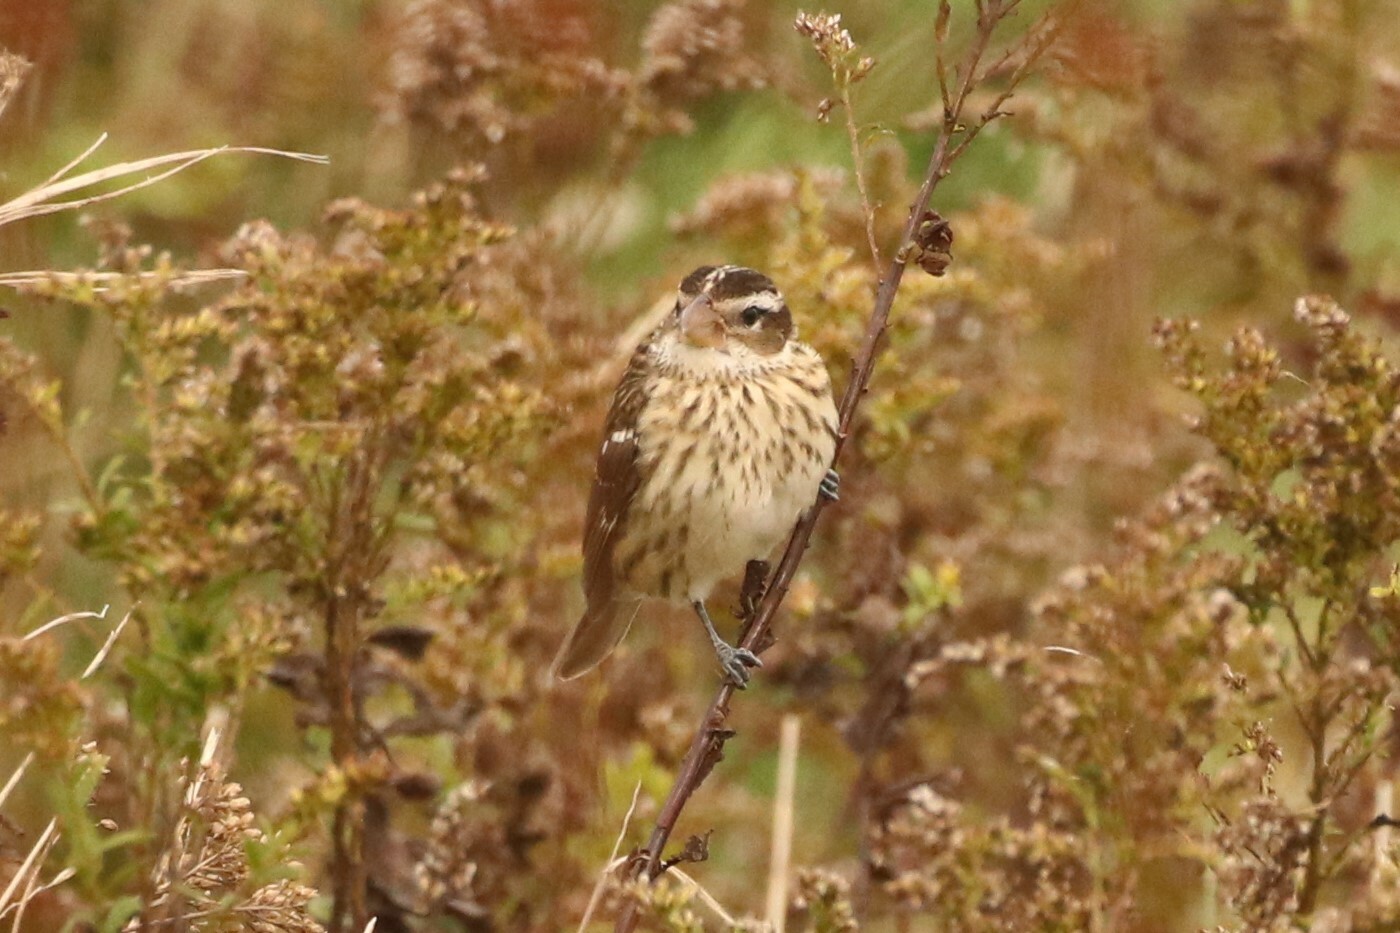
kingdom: Animalia
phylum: Chordata
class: Aves
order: Passeriformes
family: Cardinalidae
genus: Pheucticus
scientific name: Pheucticus ludovicianus
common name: Rose-breasted grosbeak
